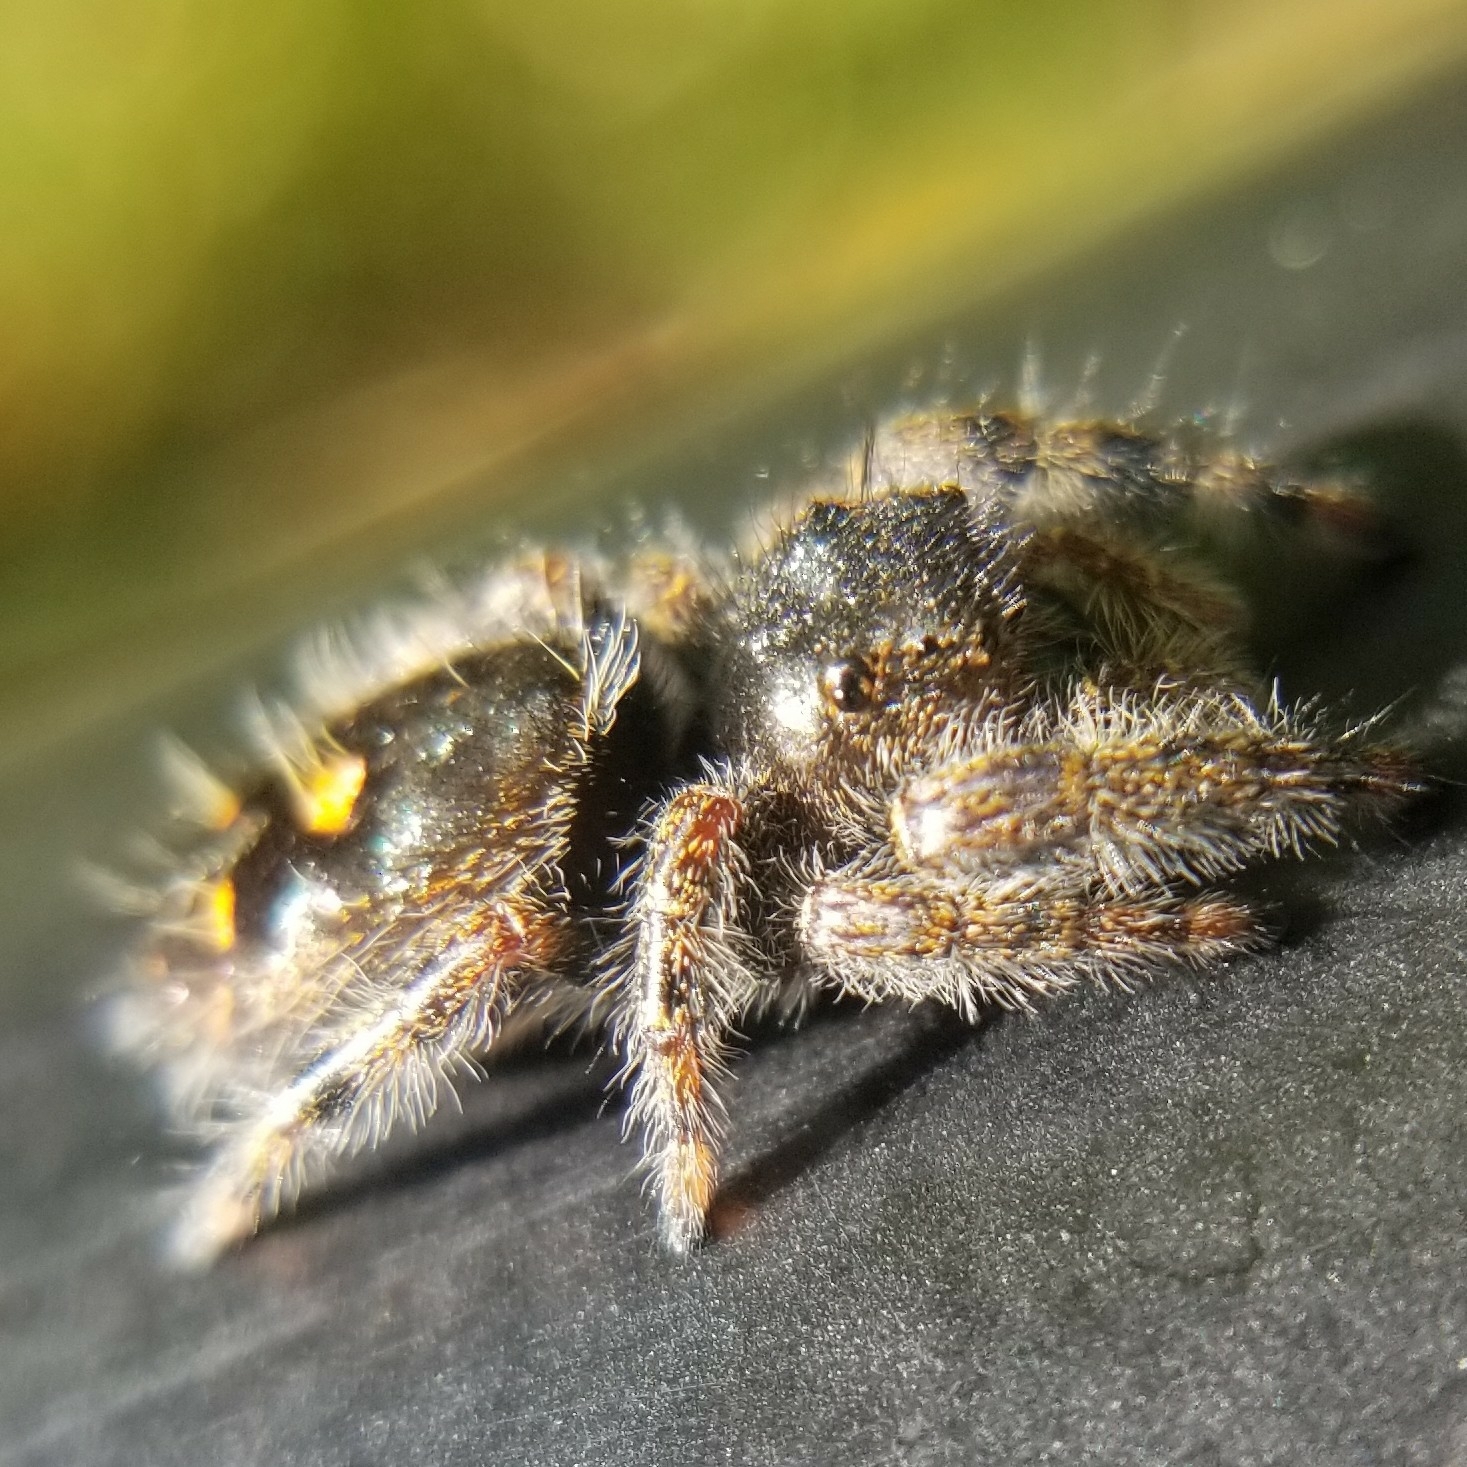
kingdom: Animalia
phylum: Arthropoda
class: Arachnida
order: Araneae
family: Salticidae
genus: Phidippus
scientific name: Phidippus audax
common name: Bold jumper
